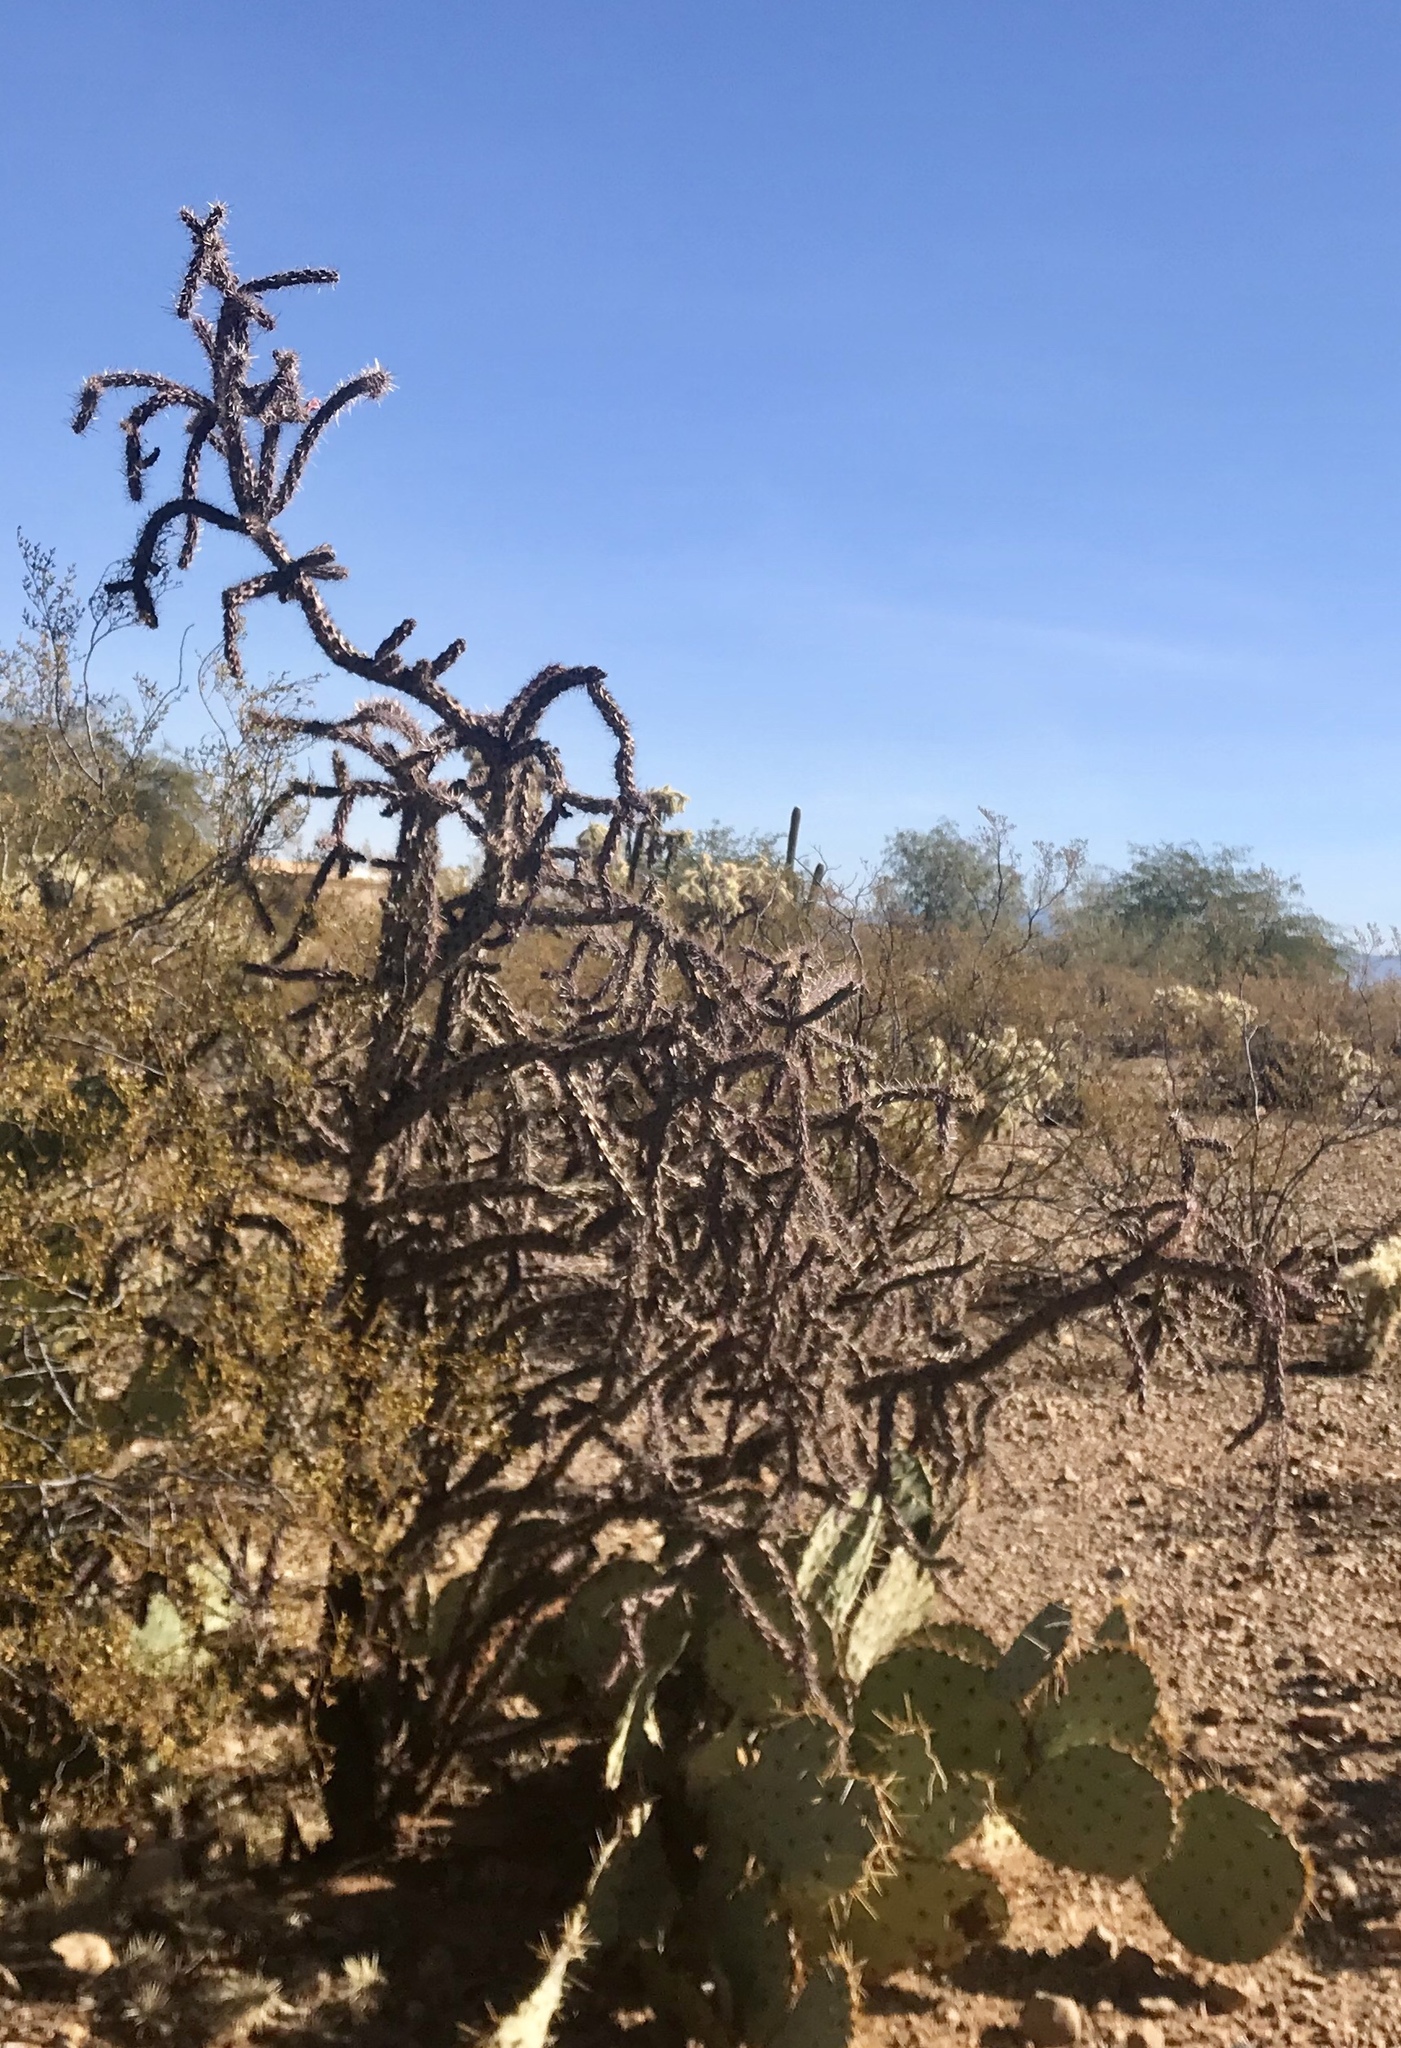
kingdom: Plantae
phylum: Tracheophyta
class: Magnoliopsida
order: Caryophyllales
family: Cactaceae
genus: Cylindropuntia
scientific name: Cylindropuntia thurberi
